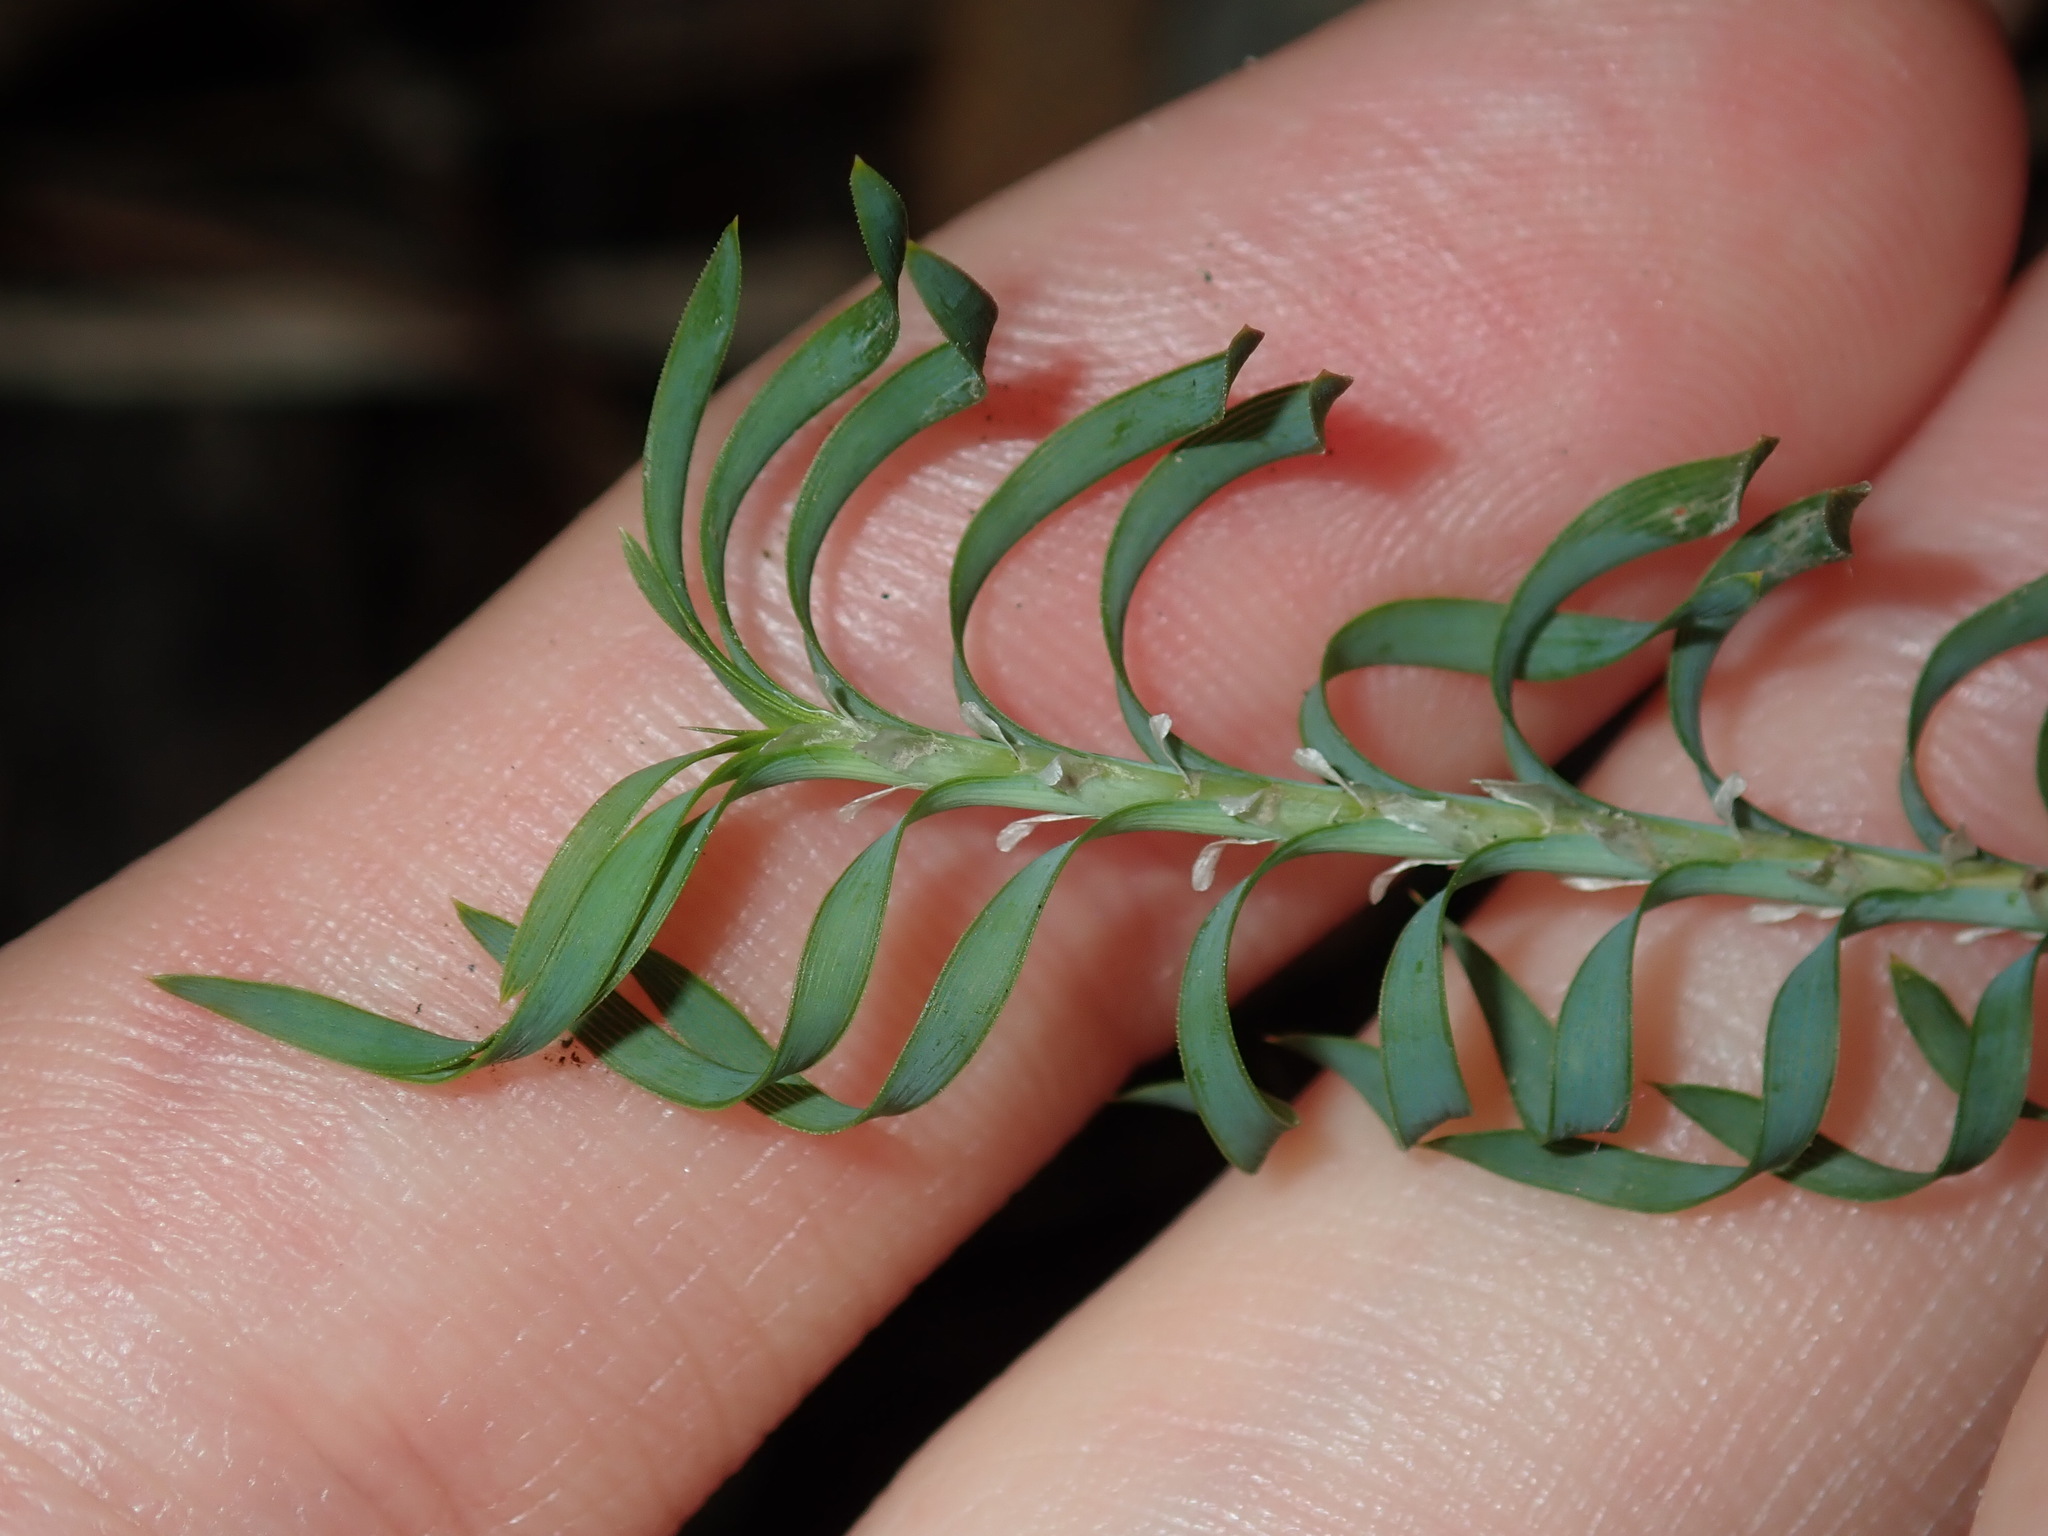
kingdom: Plantae
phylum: Tracheophyta
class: Liliopsida
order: Asparagales
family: Asparagaceae
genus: Lomandra
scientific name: Lomandra obliqua
